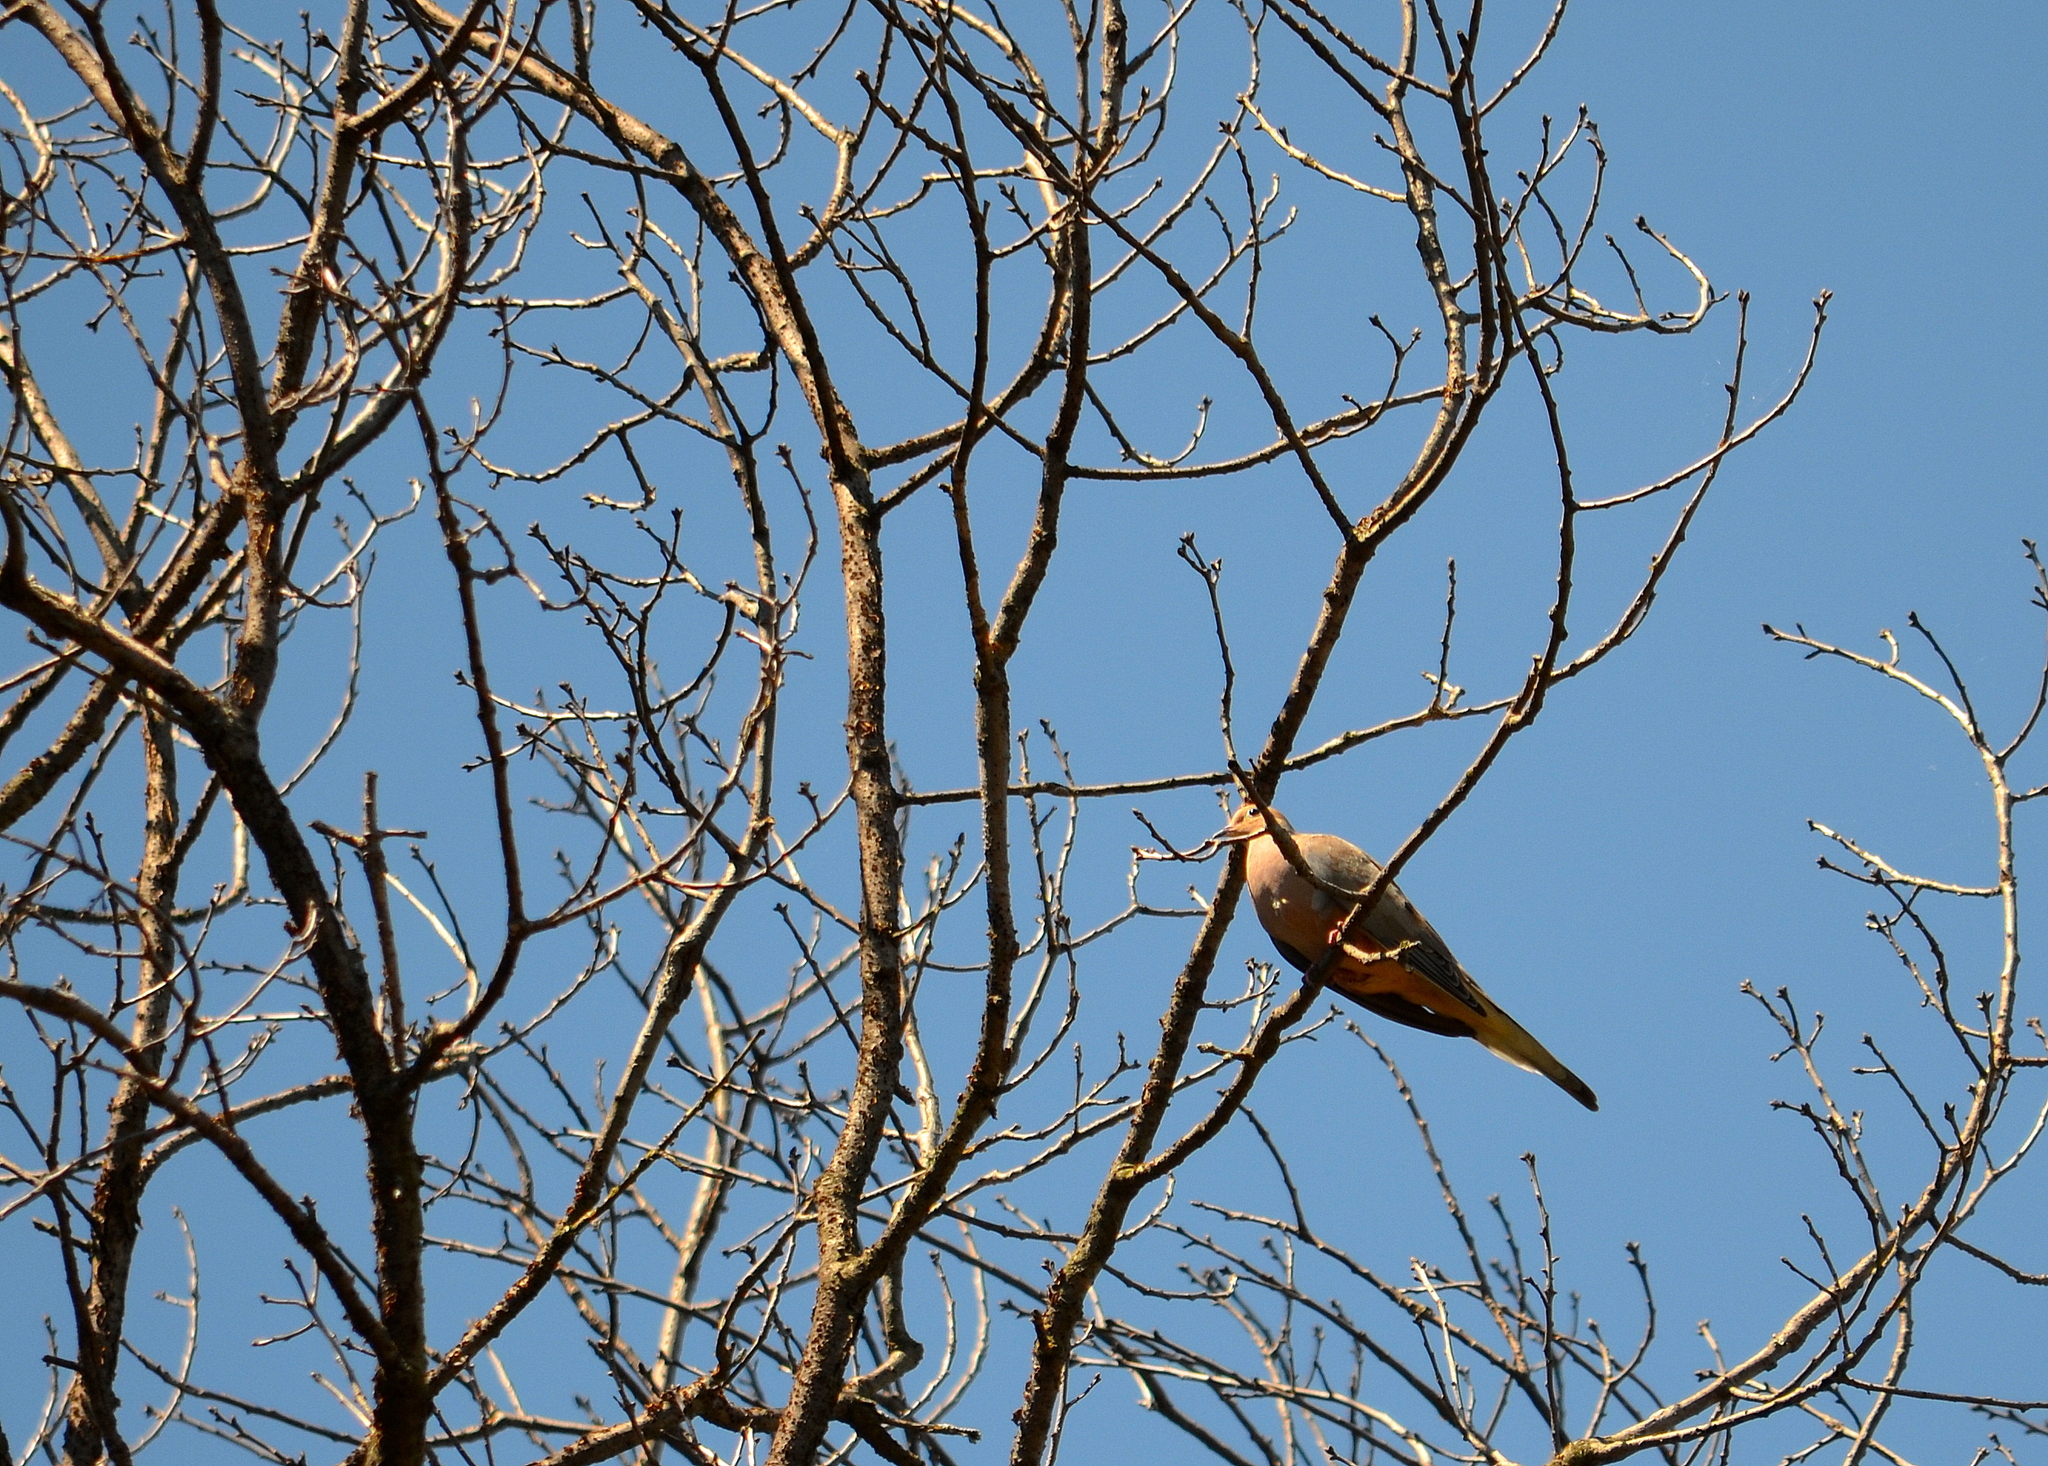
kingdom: Animalia
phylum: Chordata
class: Aves
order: Columbiformes
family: Columbidae
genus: Zenaida
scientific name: Zenaida macroura
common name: Mourning dove
